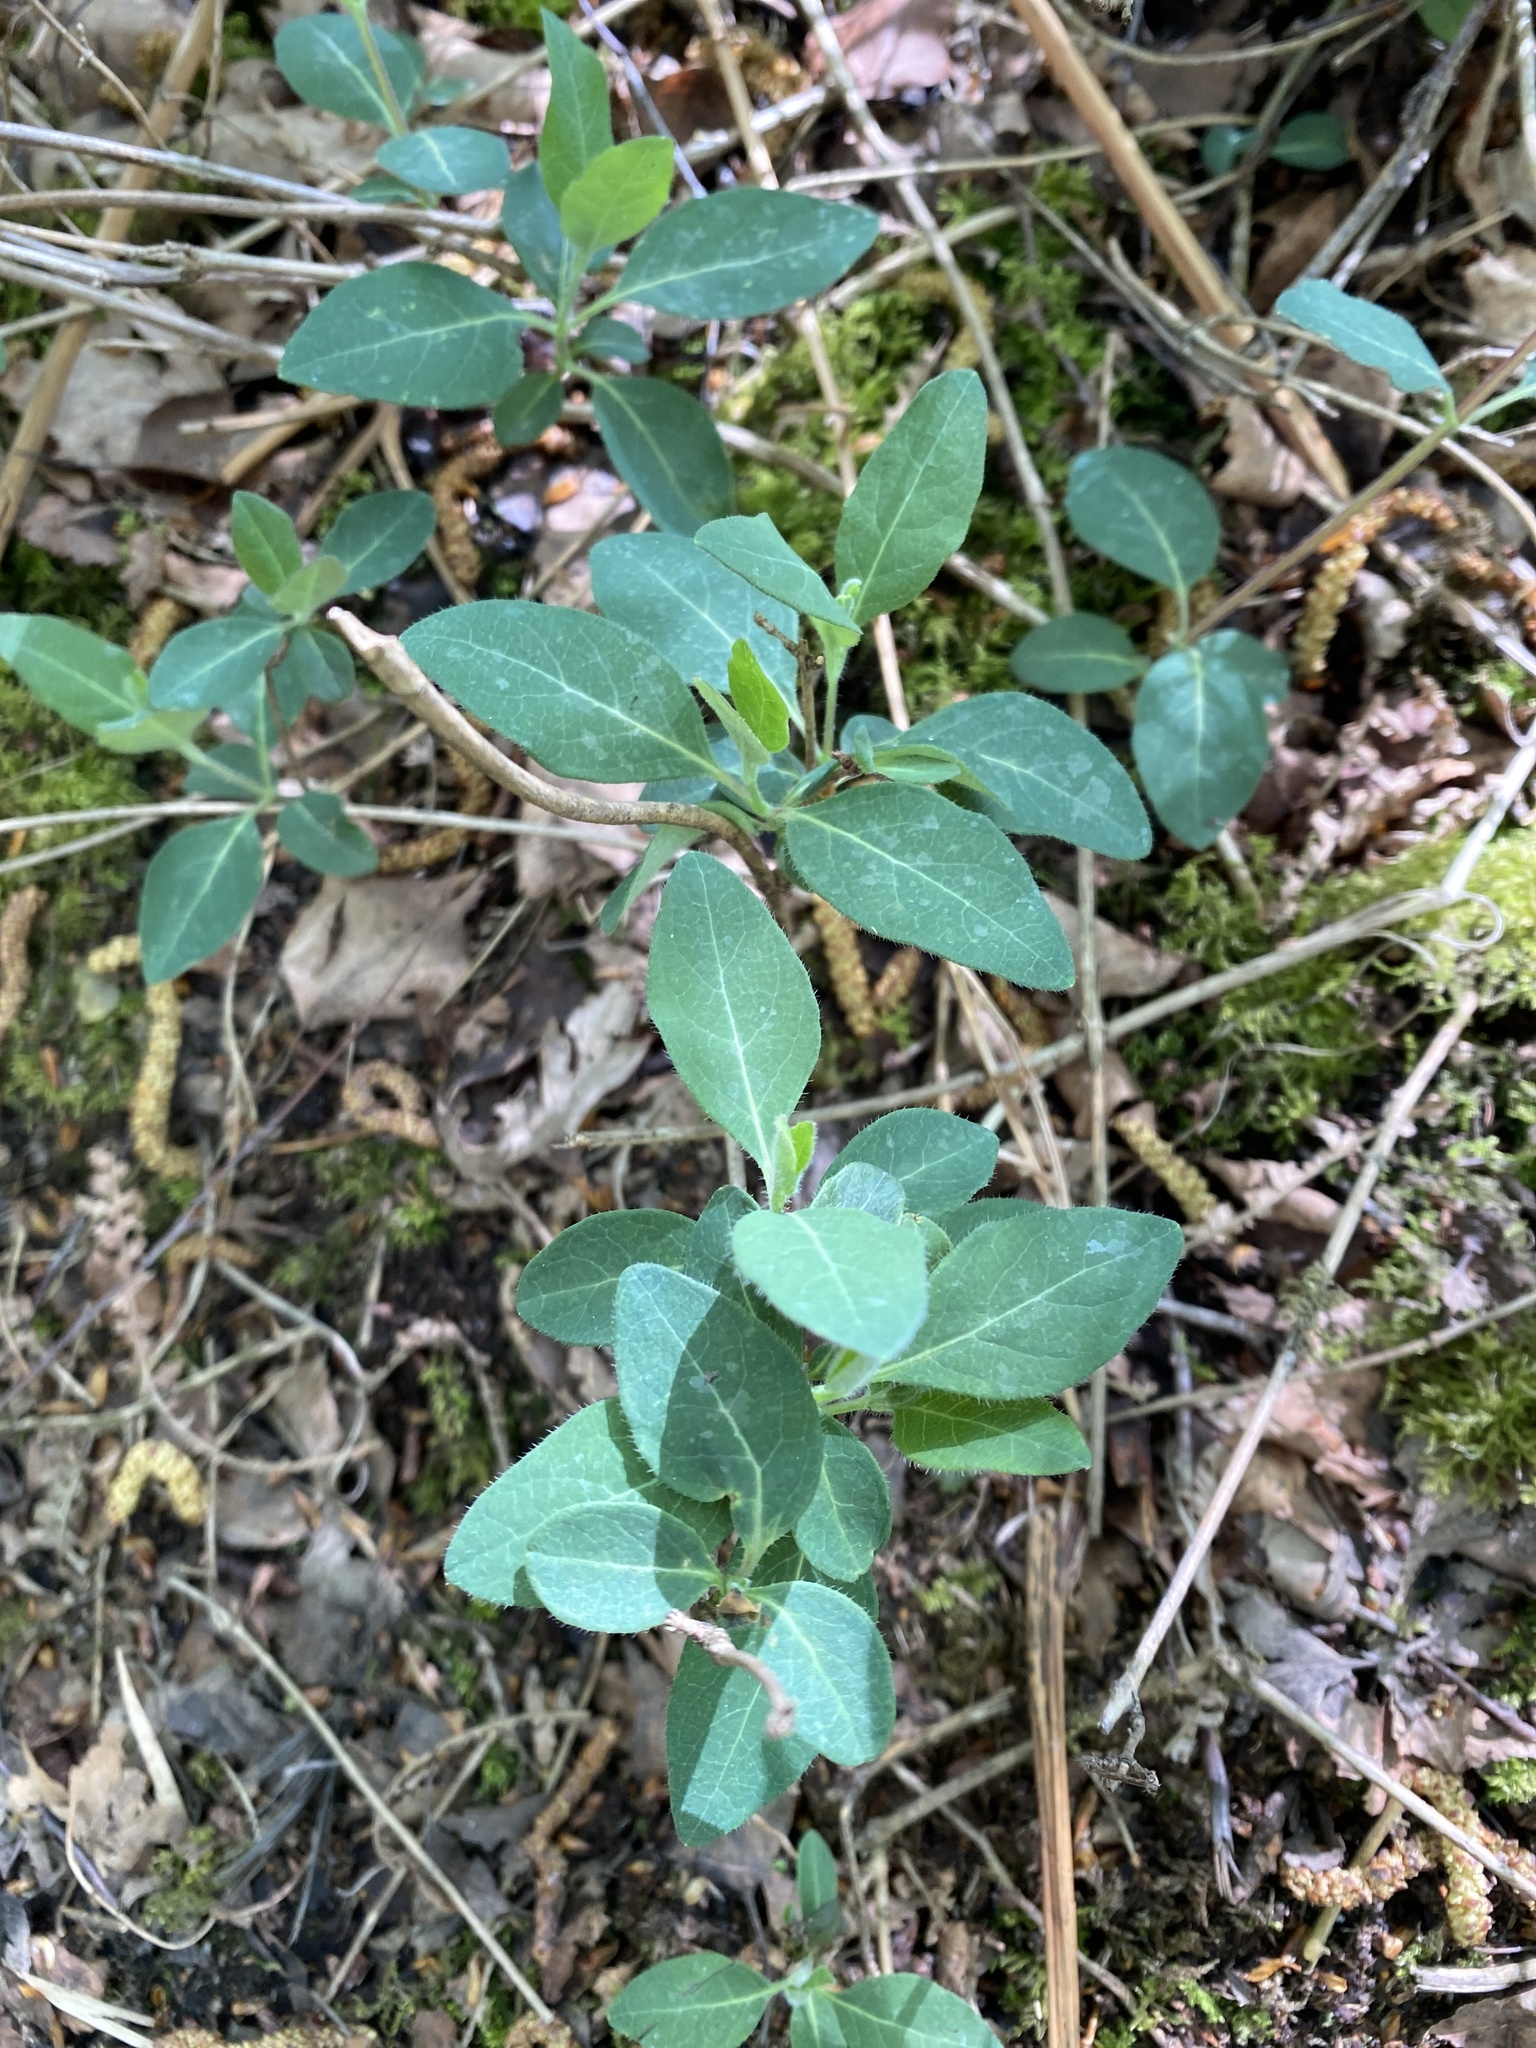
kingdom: Plantae
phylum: Tracheophyta
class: Magnoliopsida
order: Dipsacales
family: Caprifoliaceae
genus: Lonicera
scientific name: Lonicera periclymenum
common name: European honeysuckle
